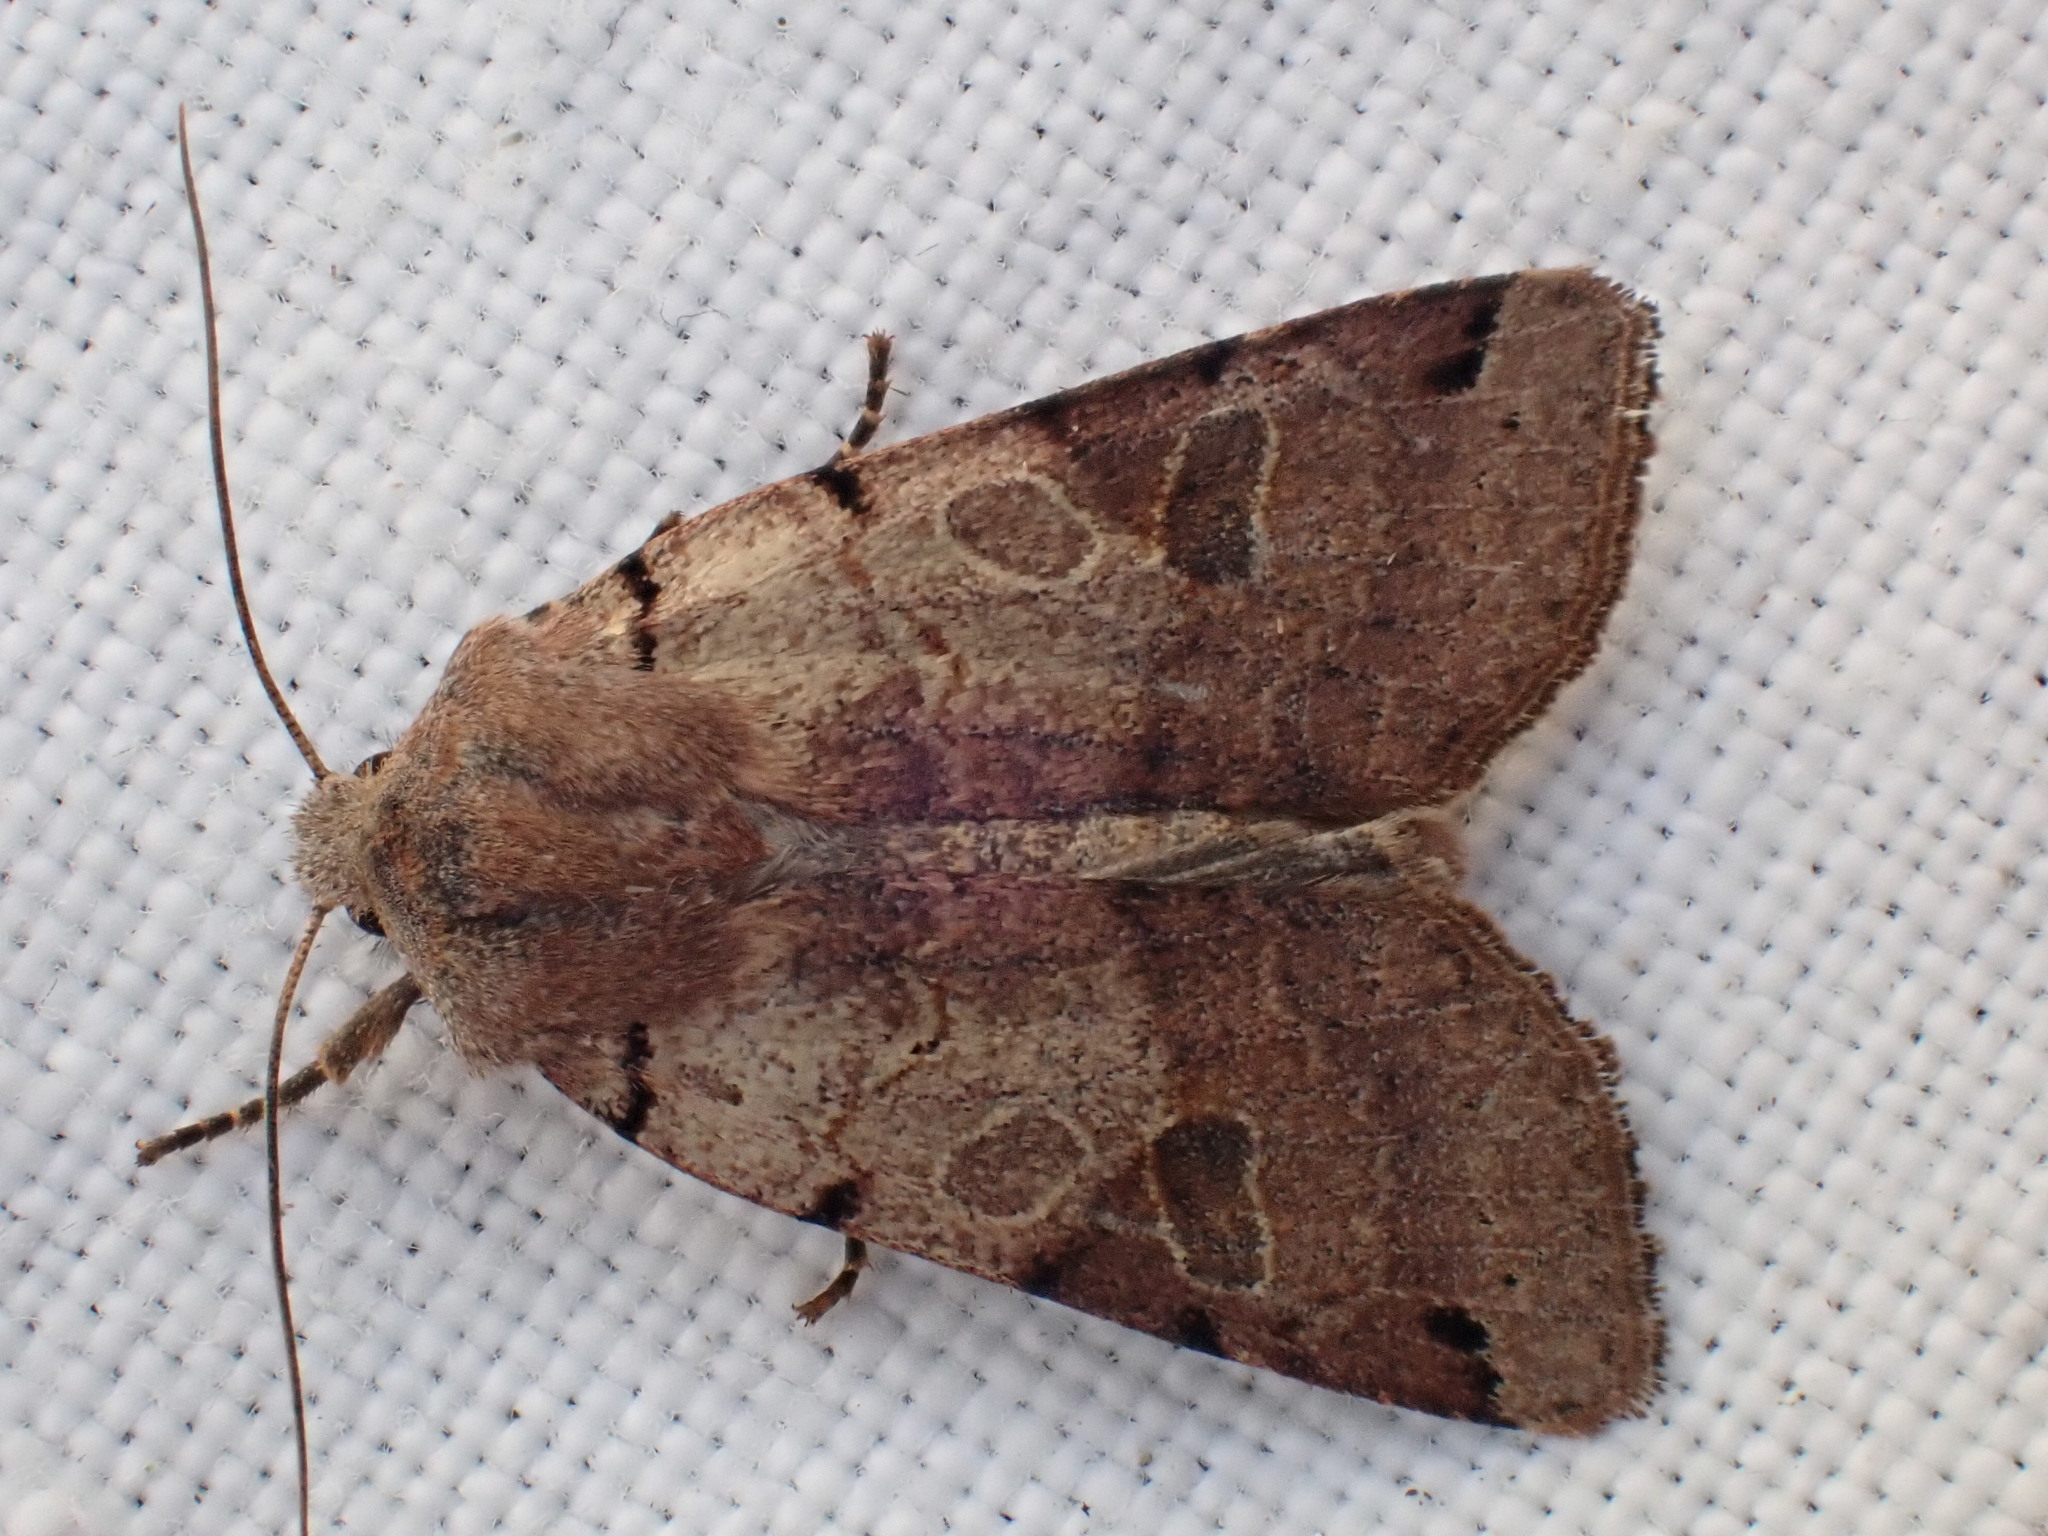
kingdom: Animalia
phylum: Arthropoda
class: Insecta
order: Lepidoptera
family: Noctuidae
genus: Agrochola
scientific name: Agrochola litura
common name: Brown-spot pinion
